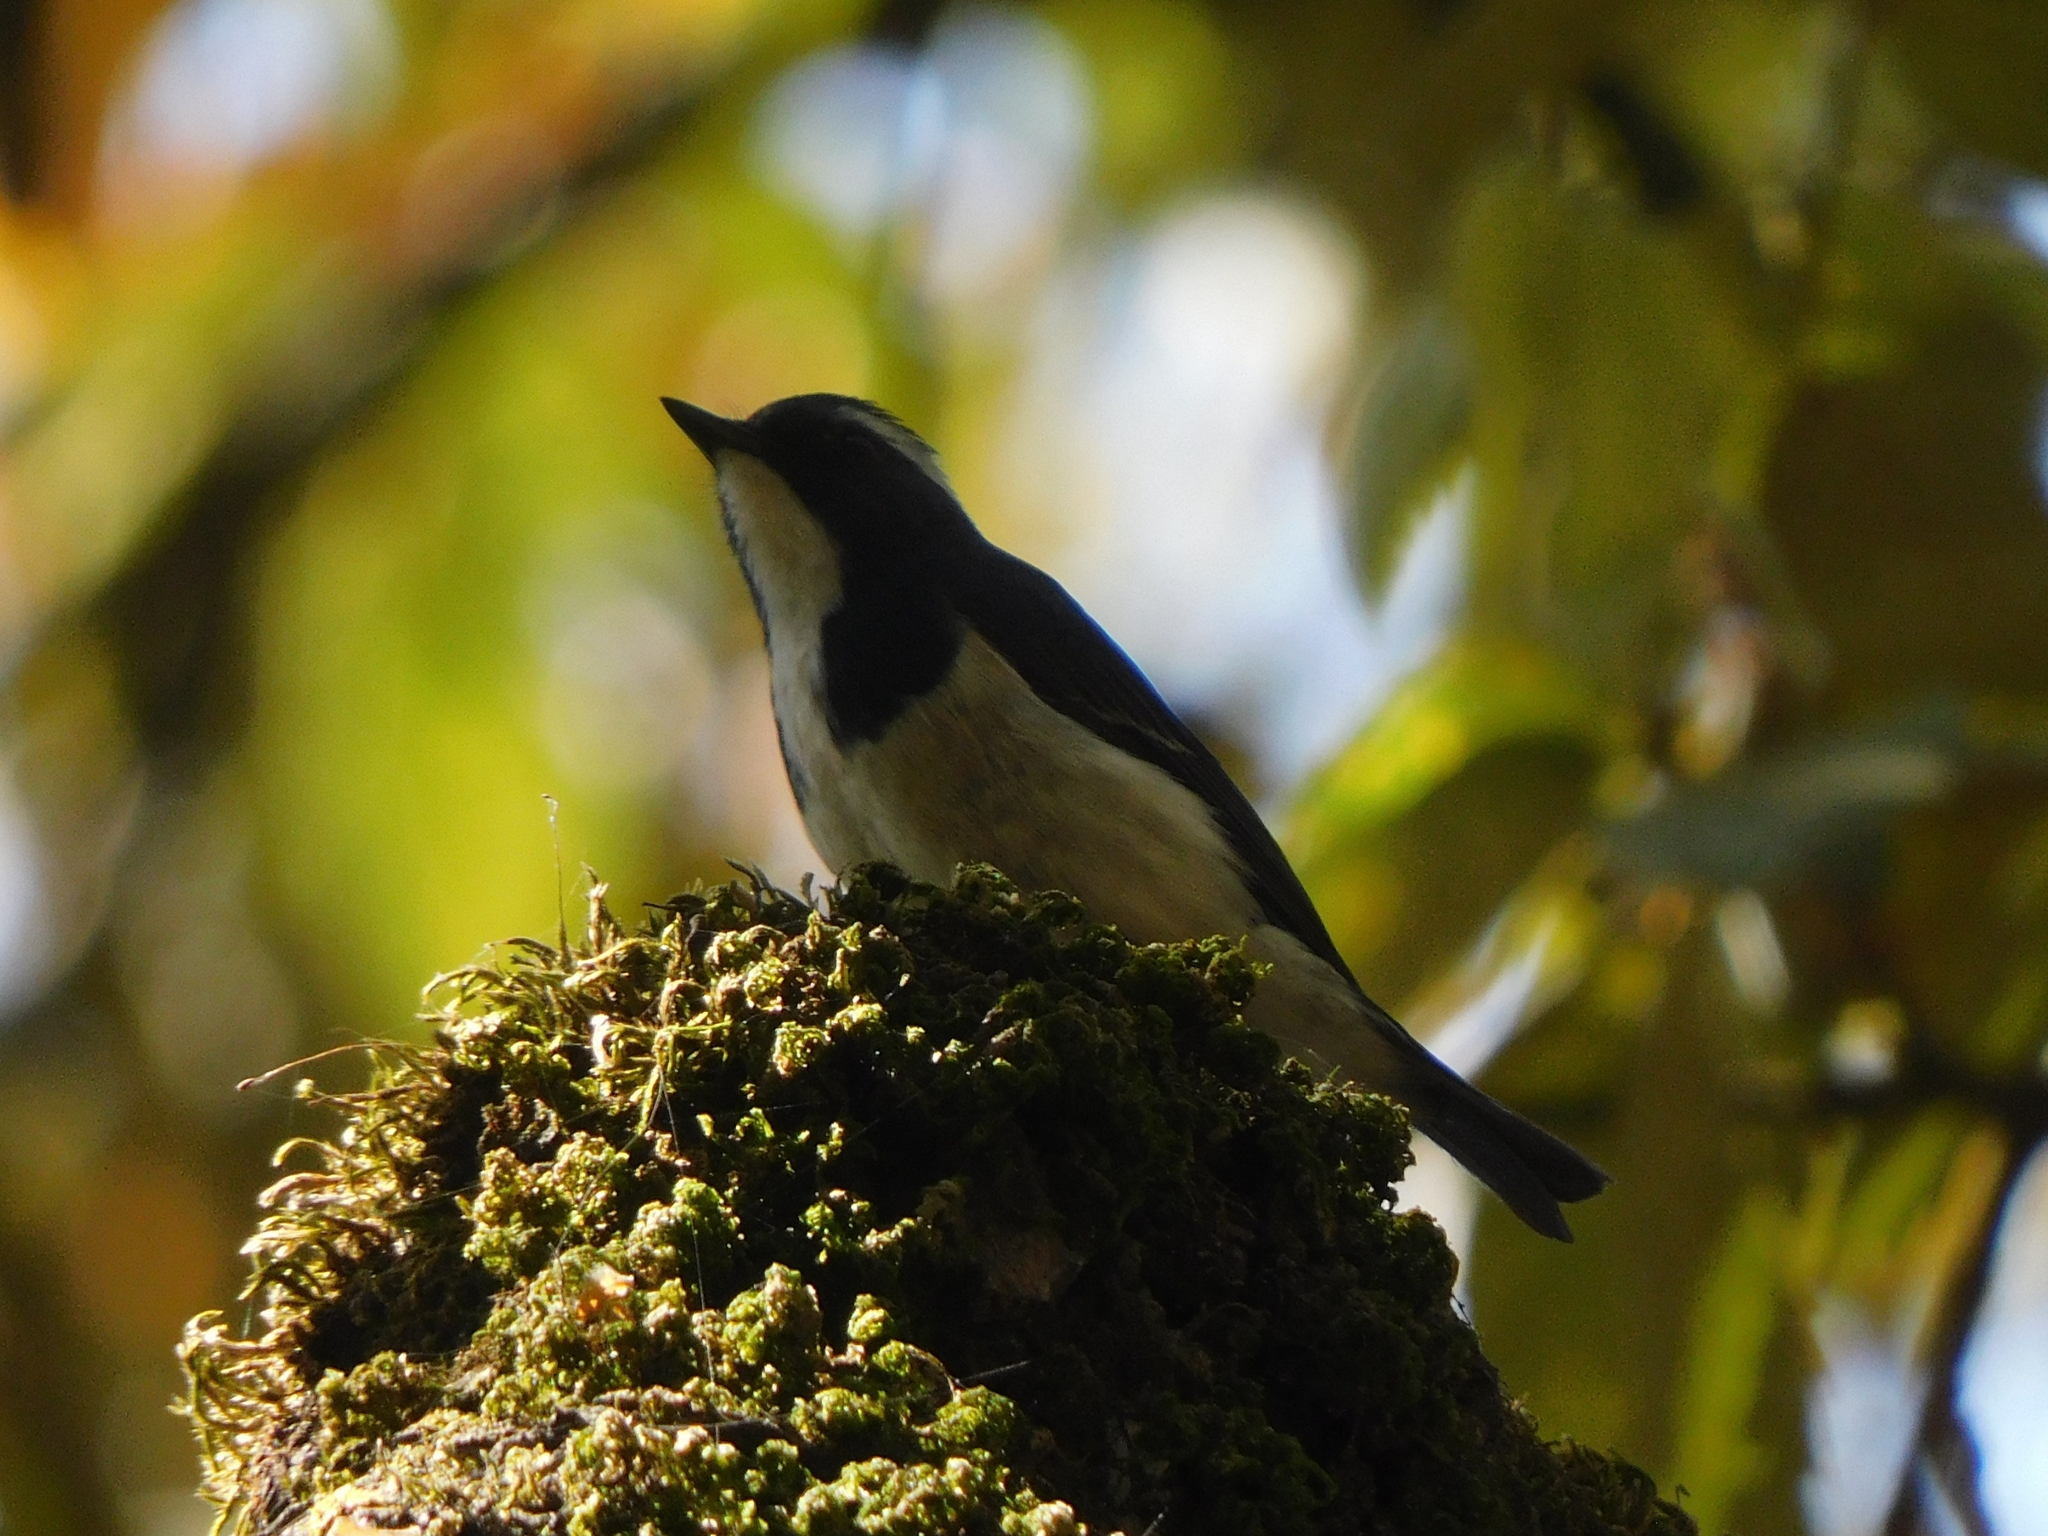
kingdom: Animalia
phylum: Chordata
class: Aves
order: Passeriformes
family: Muscicapidae
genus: Ficedula
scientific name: Ficedula superciliaris
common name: Ultramarine flycatcher
